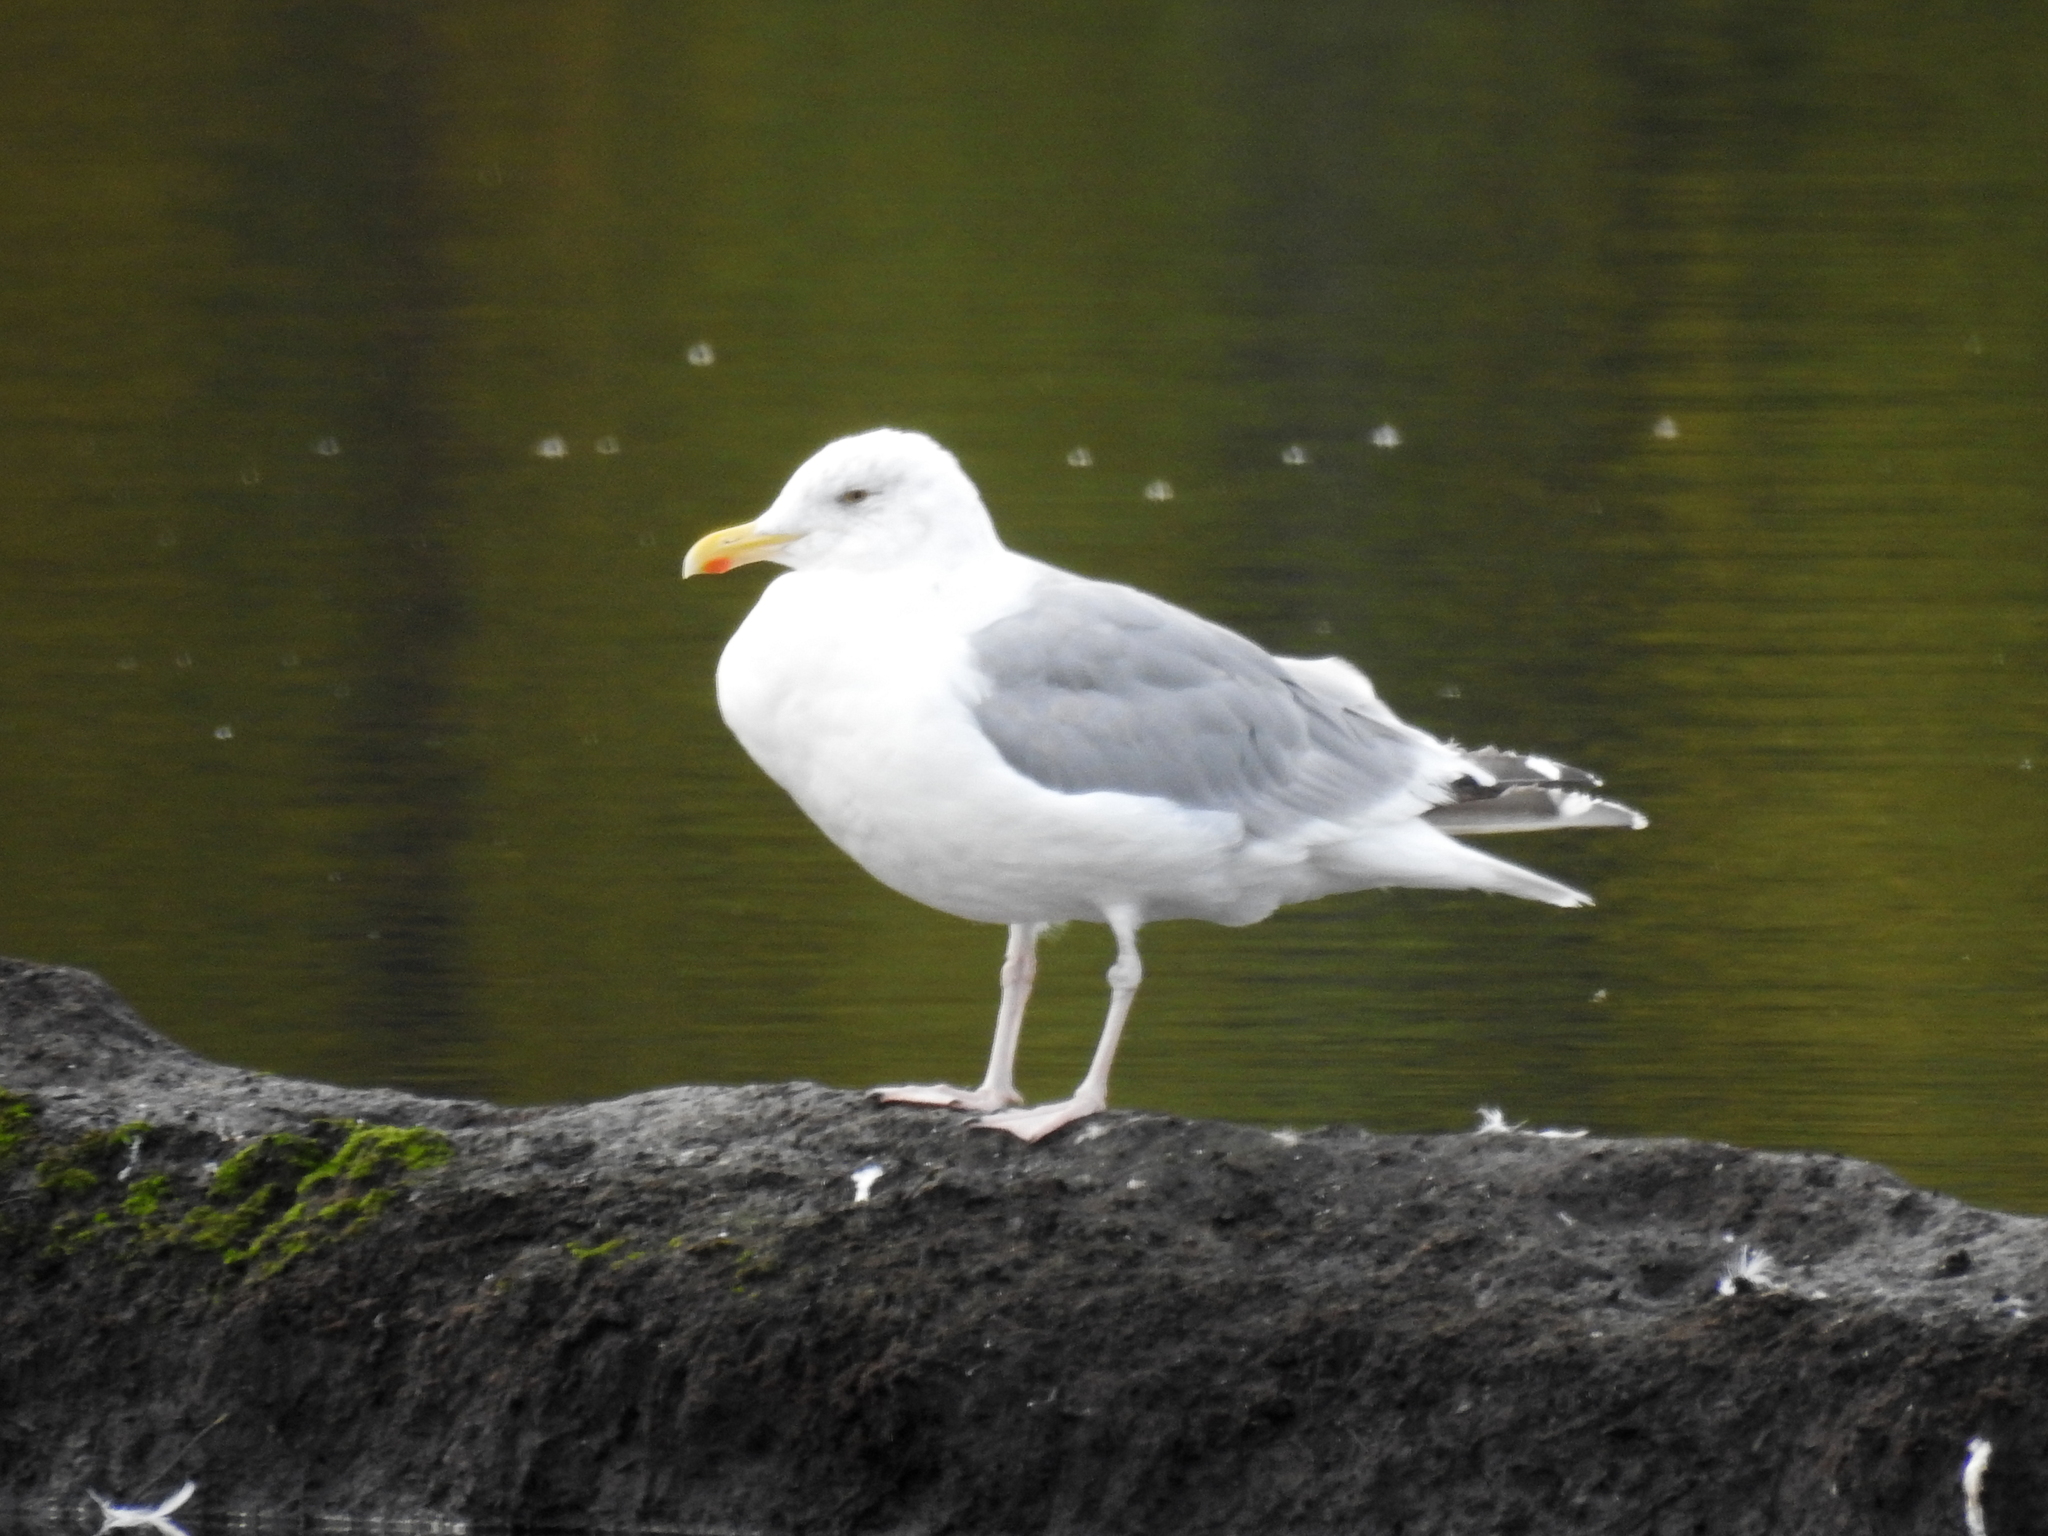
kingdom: Animalia
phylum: Chordata
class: Aves
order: Charadriiformes
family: Laridae
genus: Larus
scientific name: Larus argentatus
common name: Herring gull
